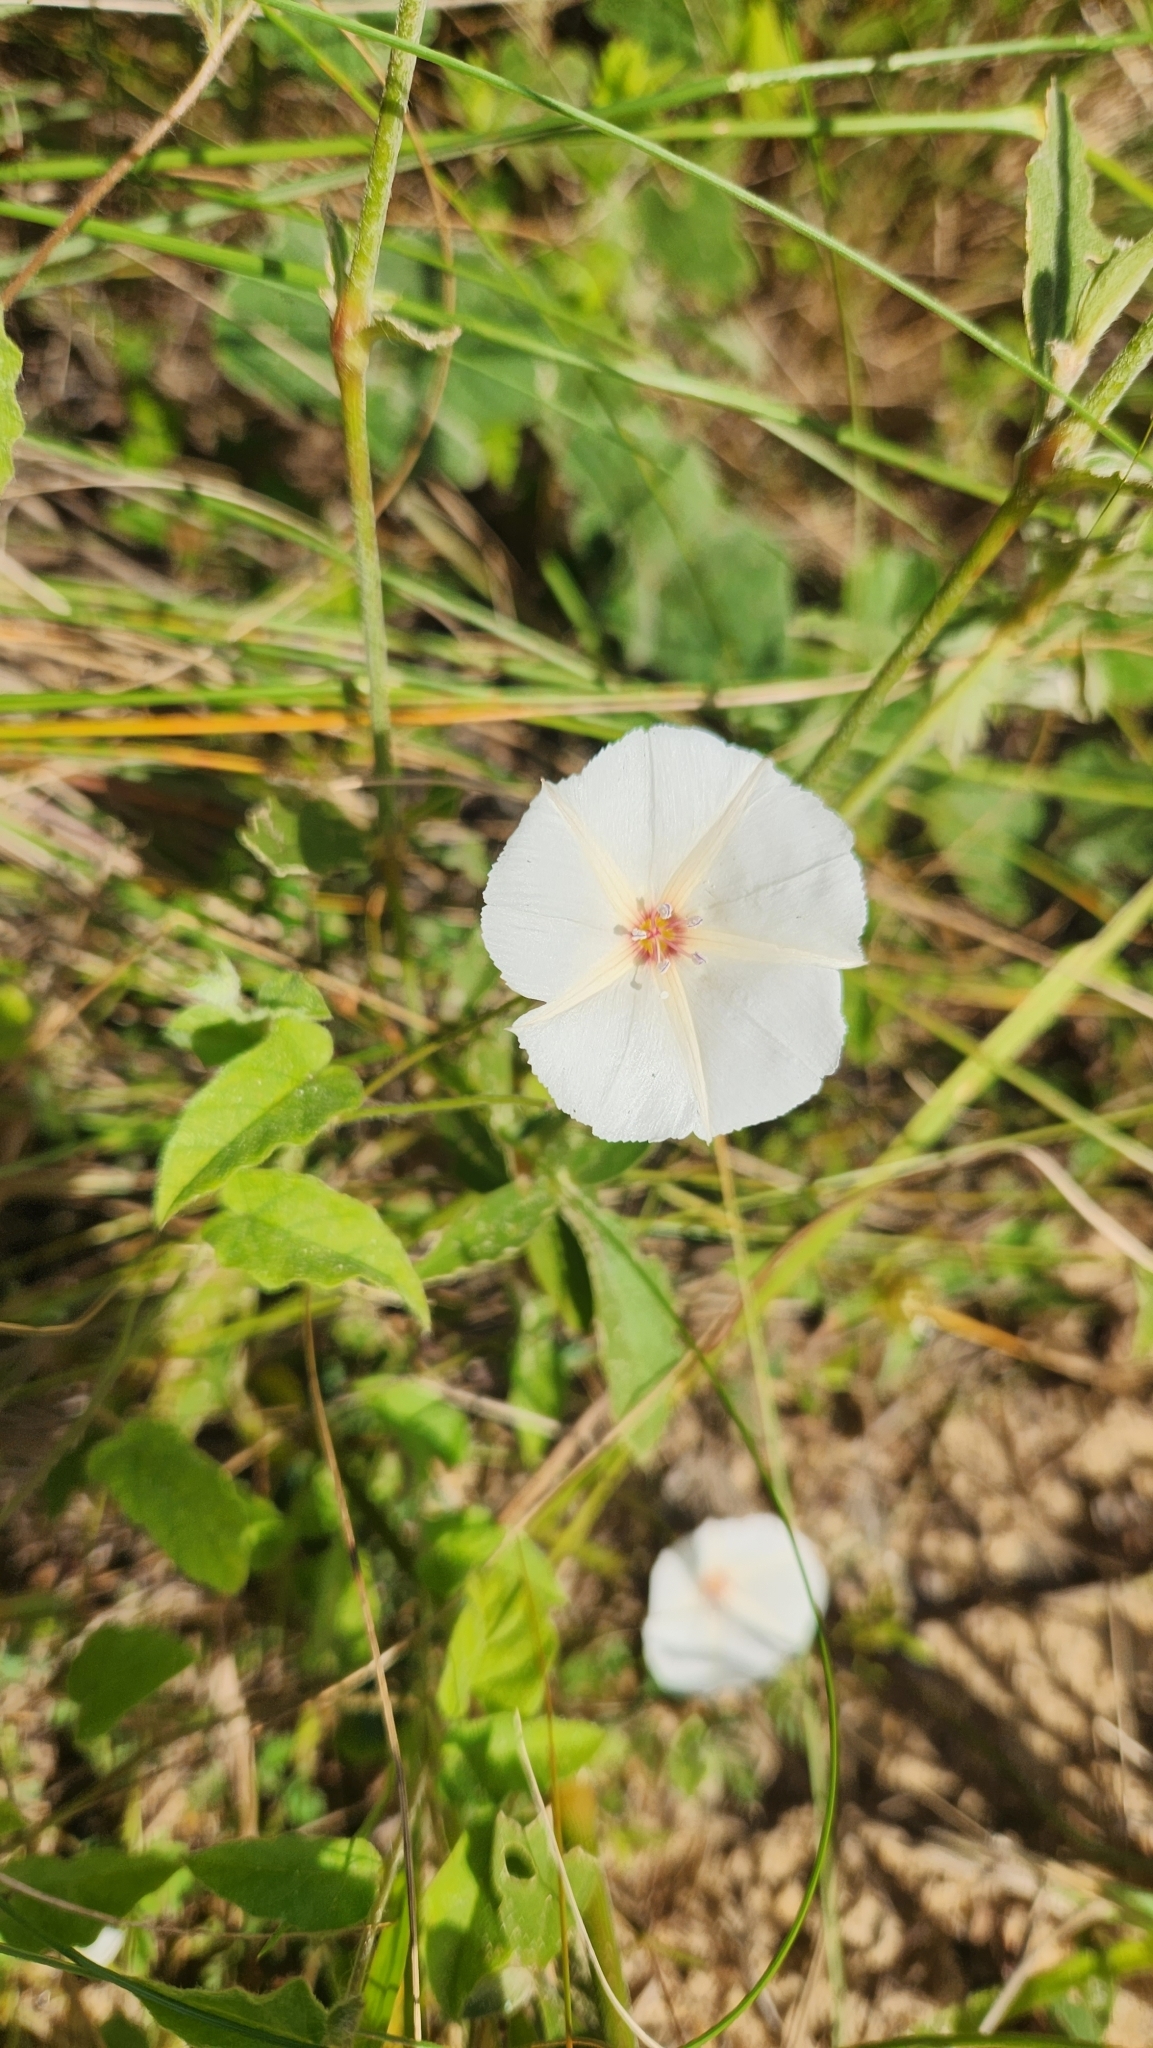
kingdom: Plantae
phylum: Tracheophyta
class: Magnoliopsida
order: Solanales
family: Convolvulaceae
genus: Jacquemontia
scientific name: Jacquemontia evolvuloides
